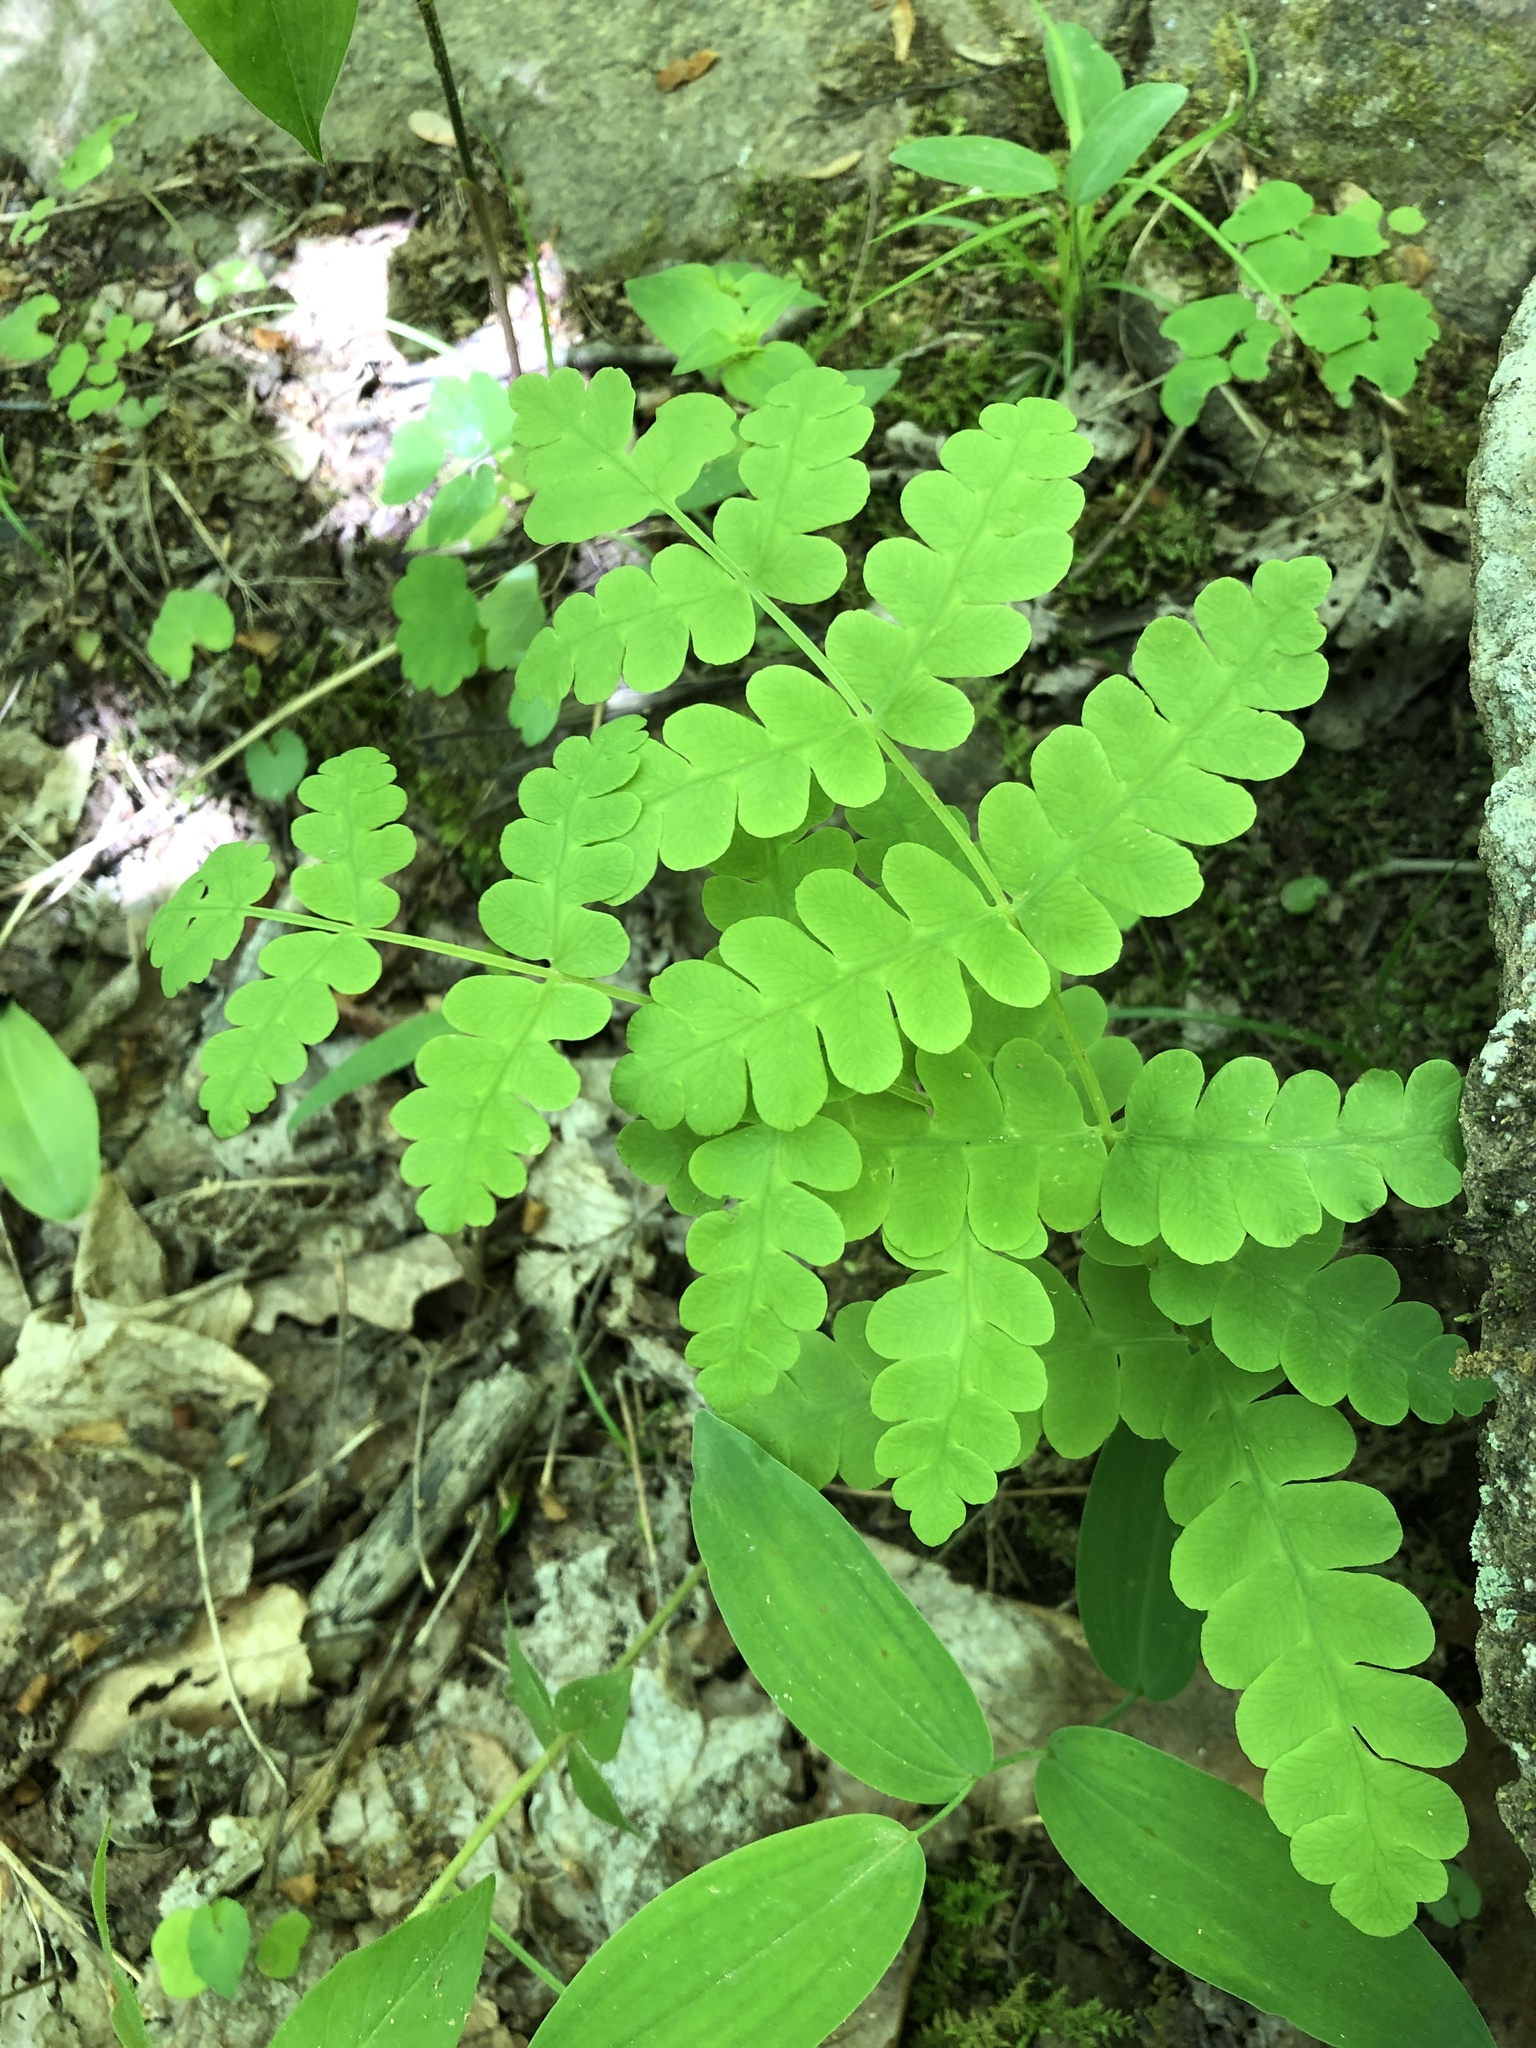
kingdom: Plantae
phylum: Tracheophyta
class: Polypodiopsida
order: Osmundales
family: Osmundaceae
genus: Claytosmunda
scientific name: Claytosmunda claytoniana
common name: Clayton's fern
